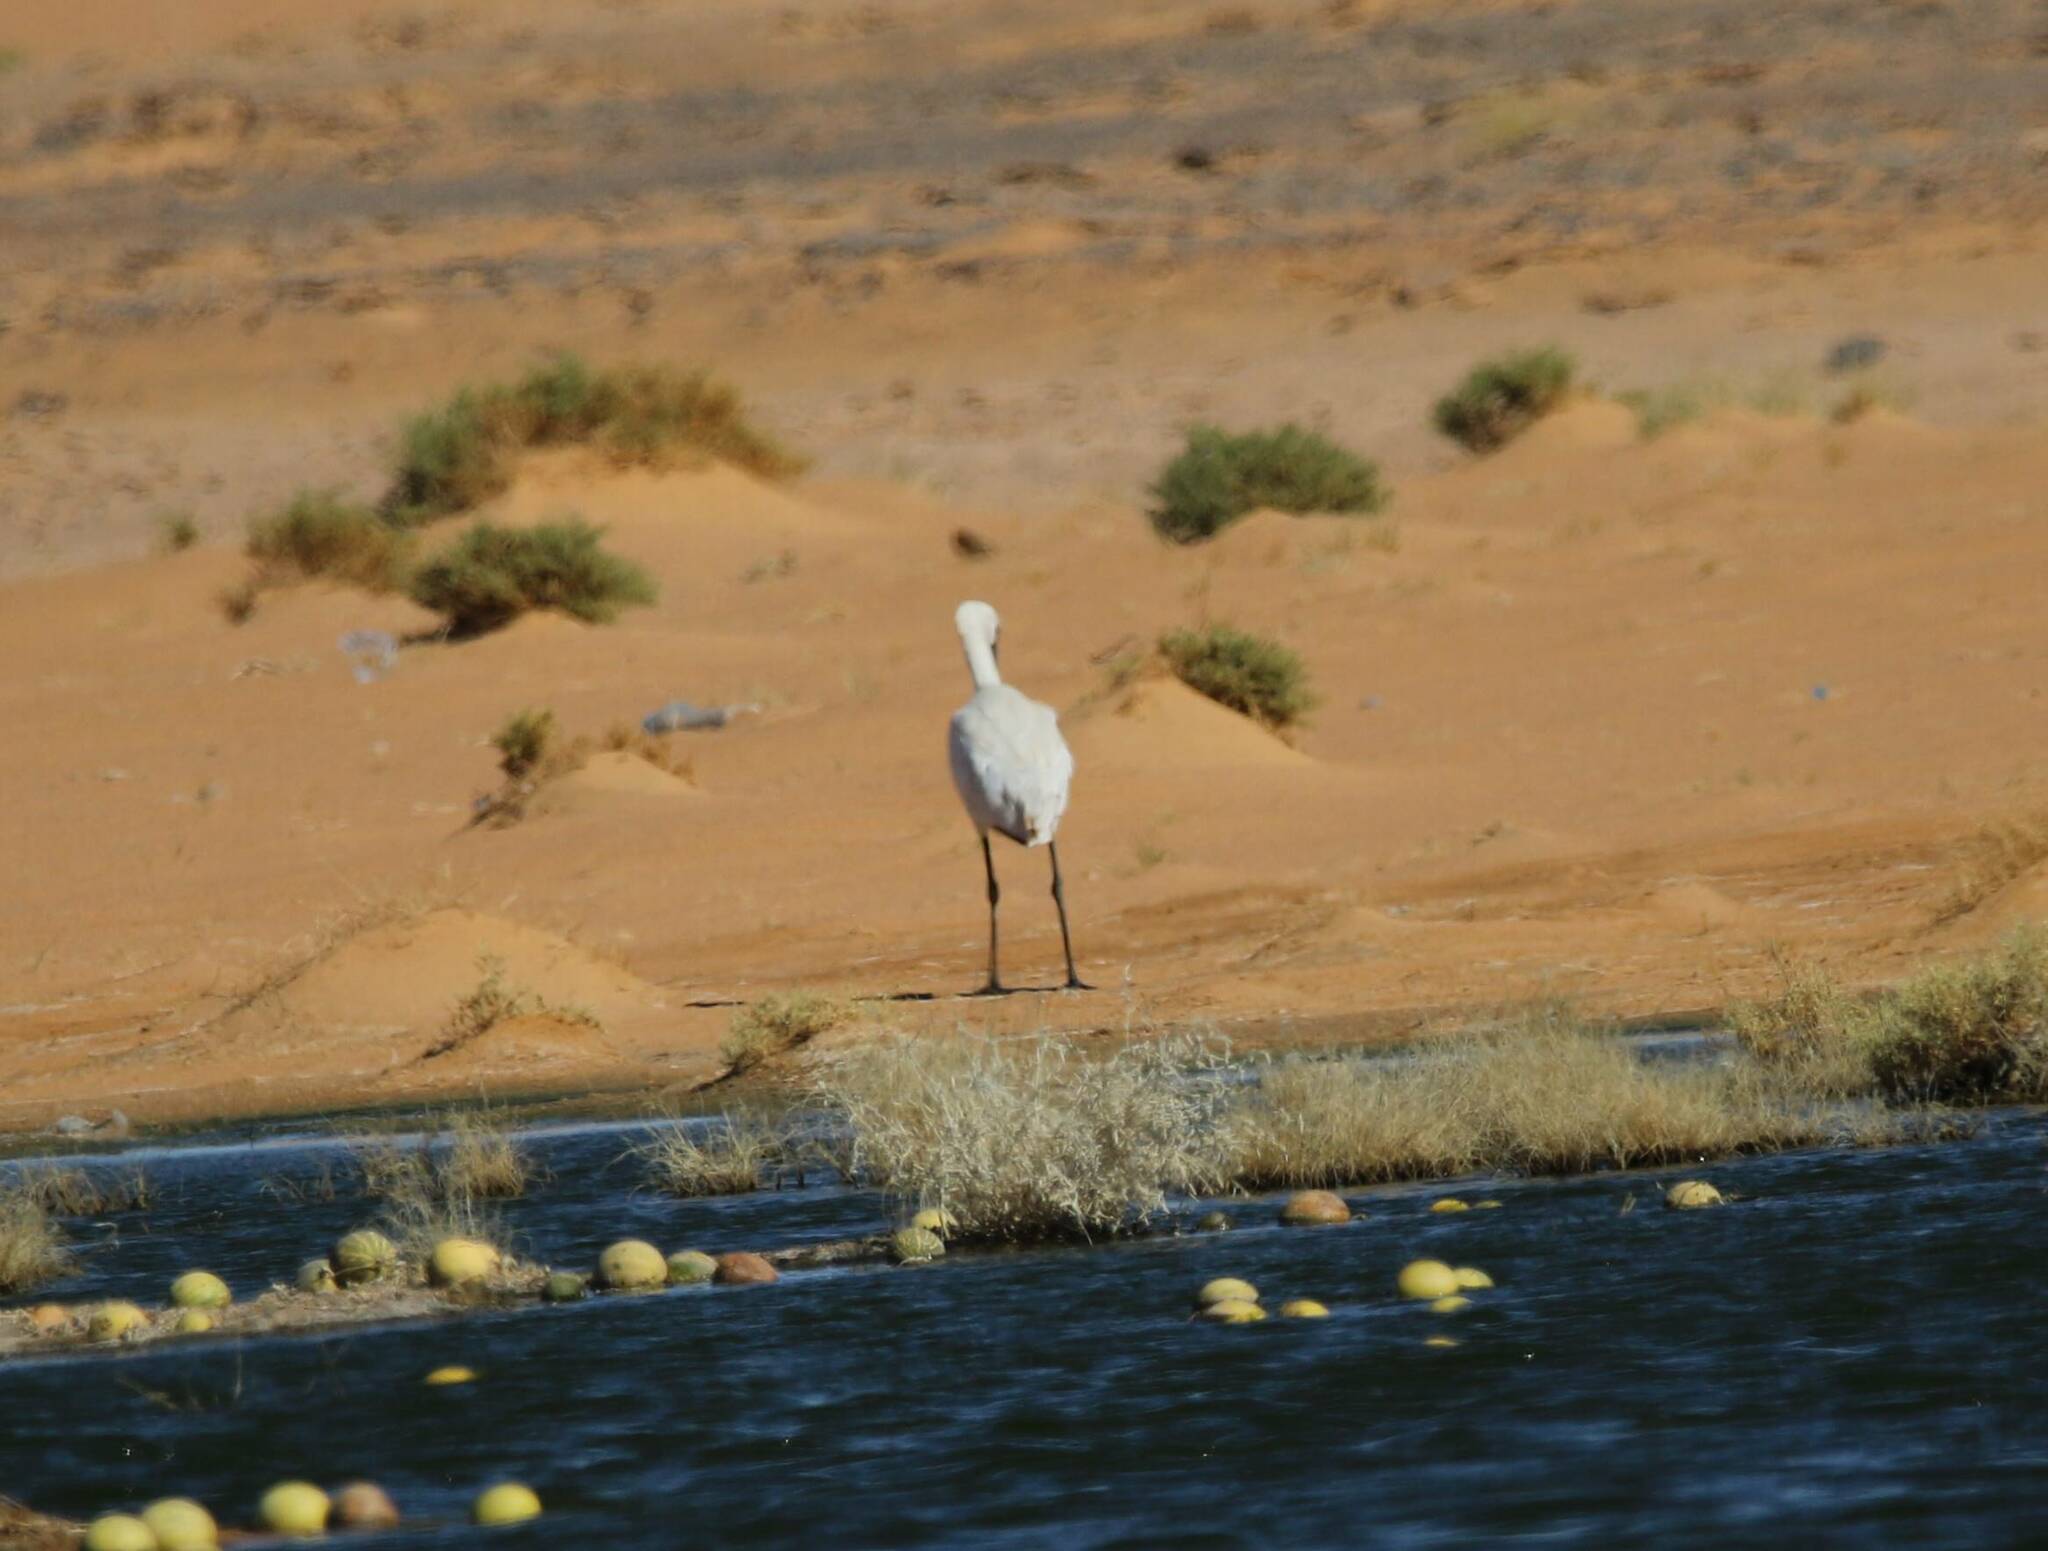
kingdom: Animalia
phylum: Chordata
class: Aves
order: Pelecaniformes
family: Threskiornithidae
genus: Platalea
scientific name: Platalea leucorodia
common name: Eurasian spoonbill
